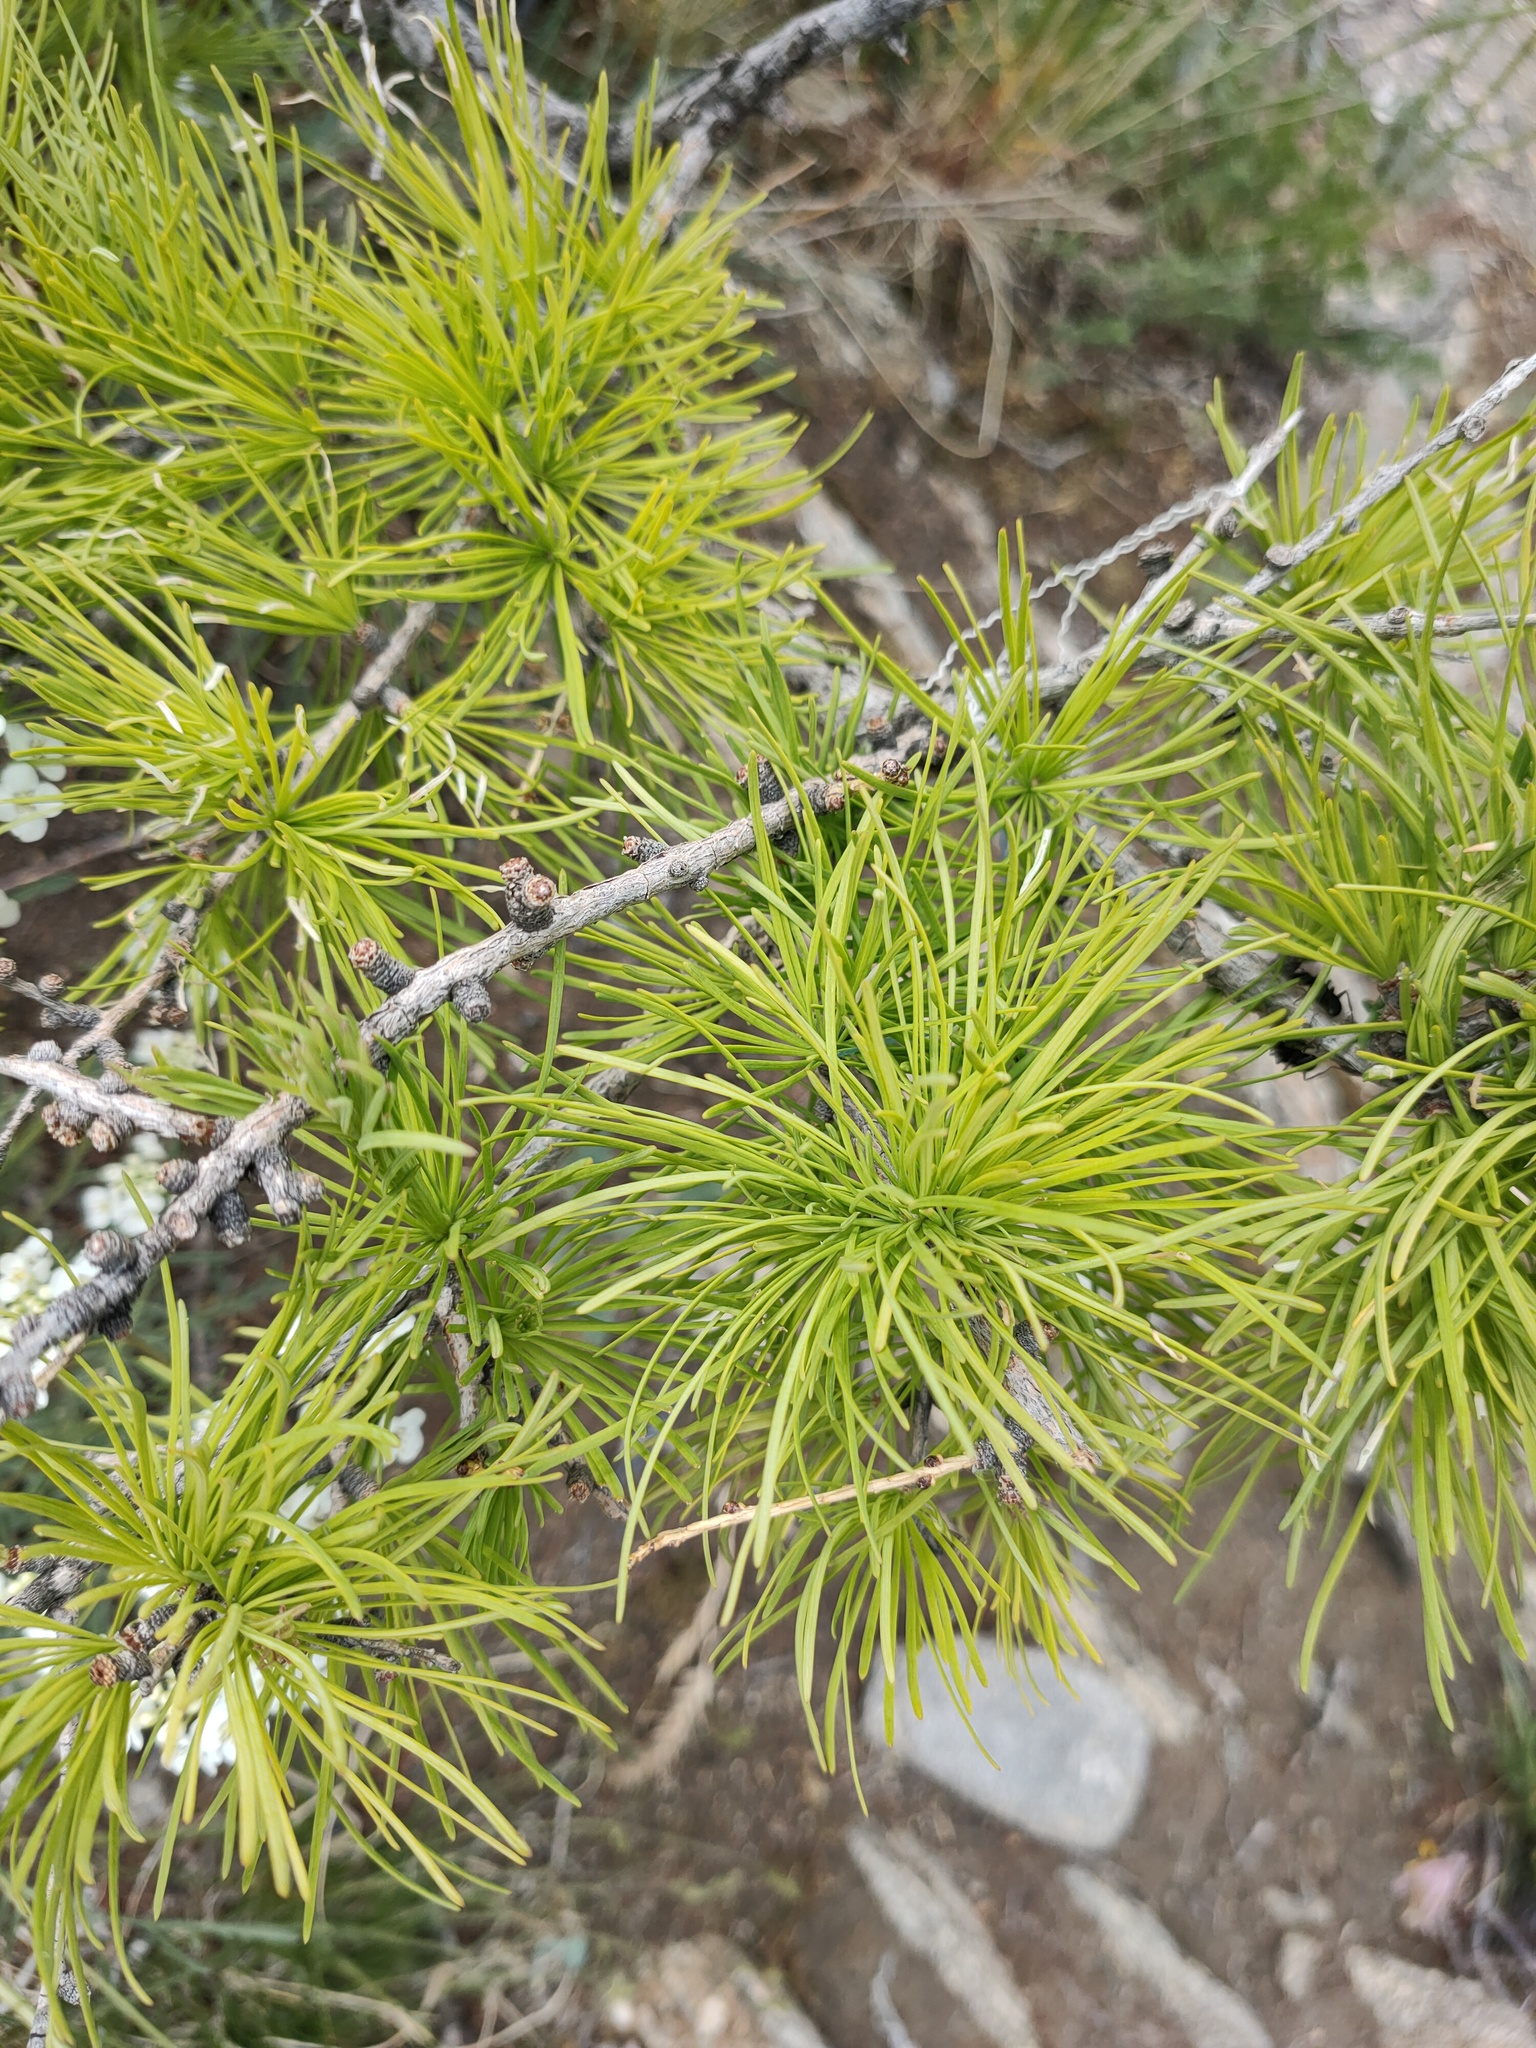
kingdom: Plantae
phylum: Tracheophyta
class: Pinopsida
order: Pinales
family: Pinaceae
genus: Larix
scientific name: Larix sibirica
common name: Siberian larch
